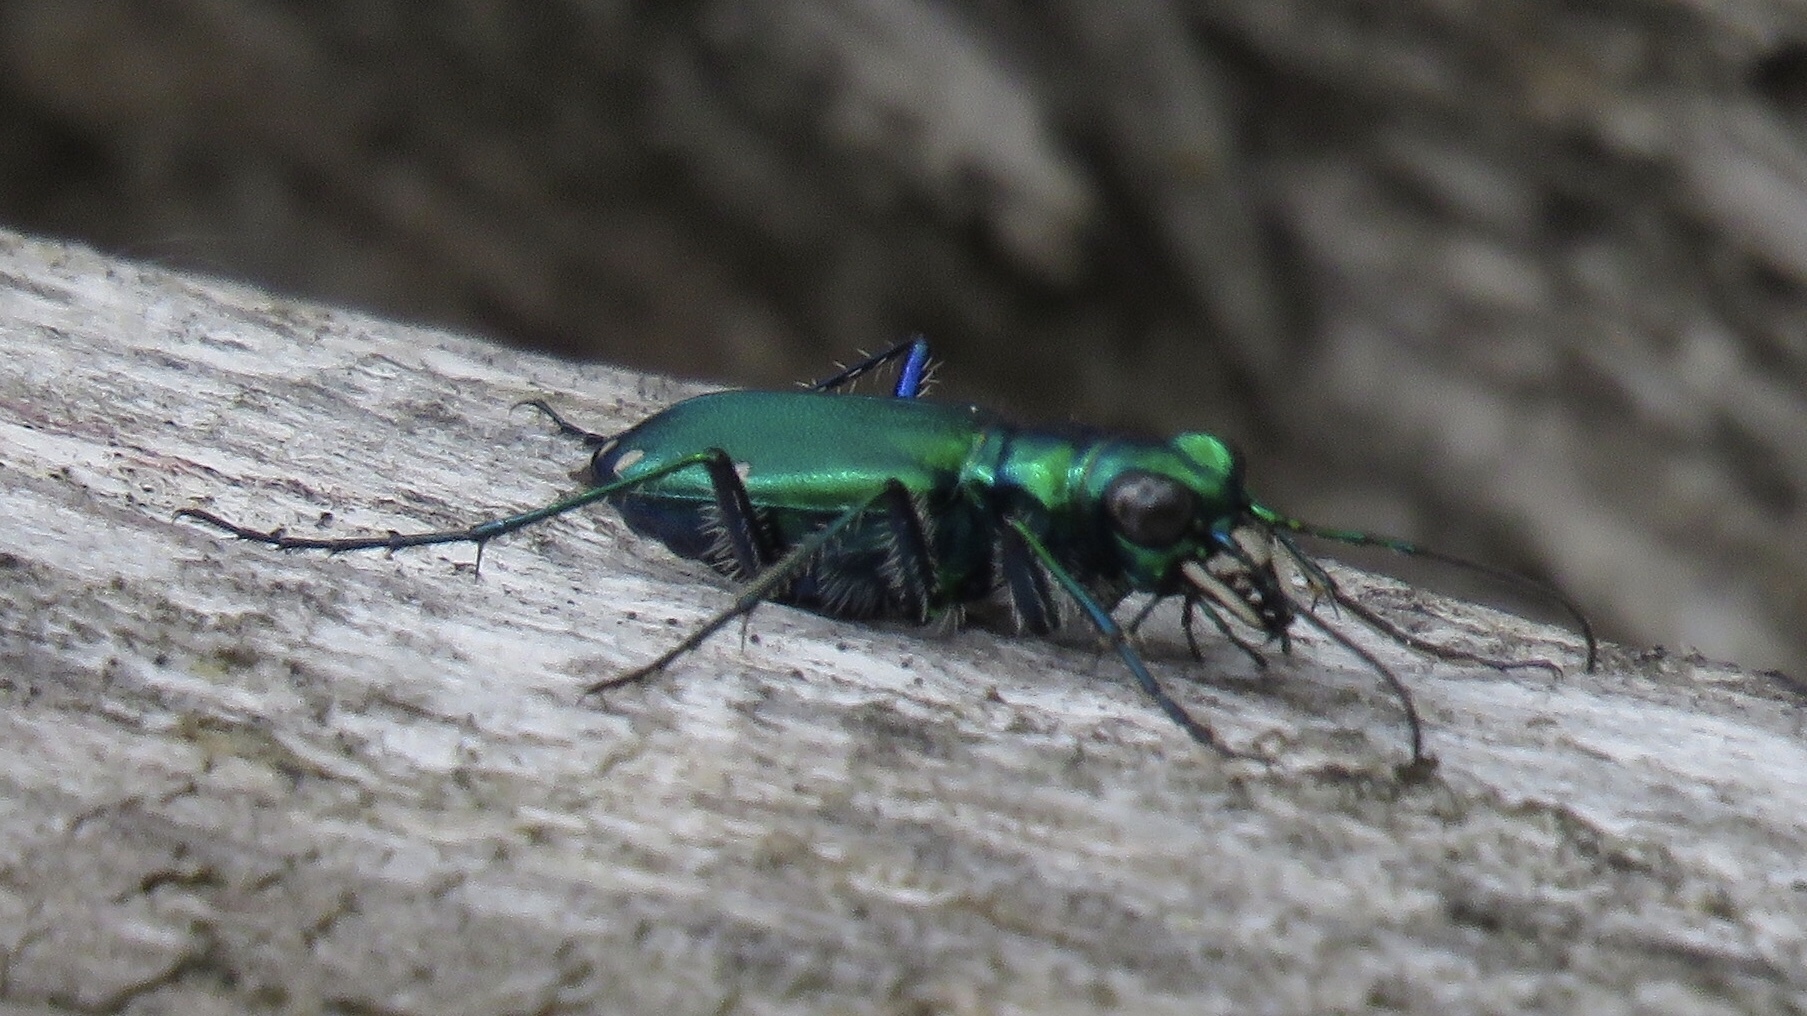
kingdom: Animalia
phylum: Arthropoda
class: Insecta
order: Coleoptera
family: Carabidae
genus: Cicindela
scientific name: Cicindela sexguttata
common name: Six-spotted tiger beetle
